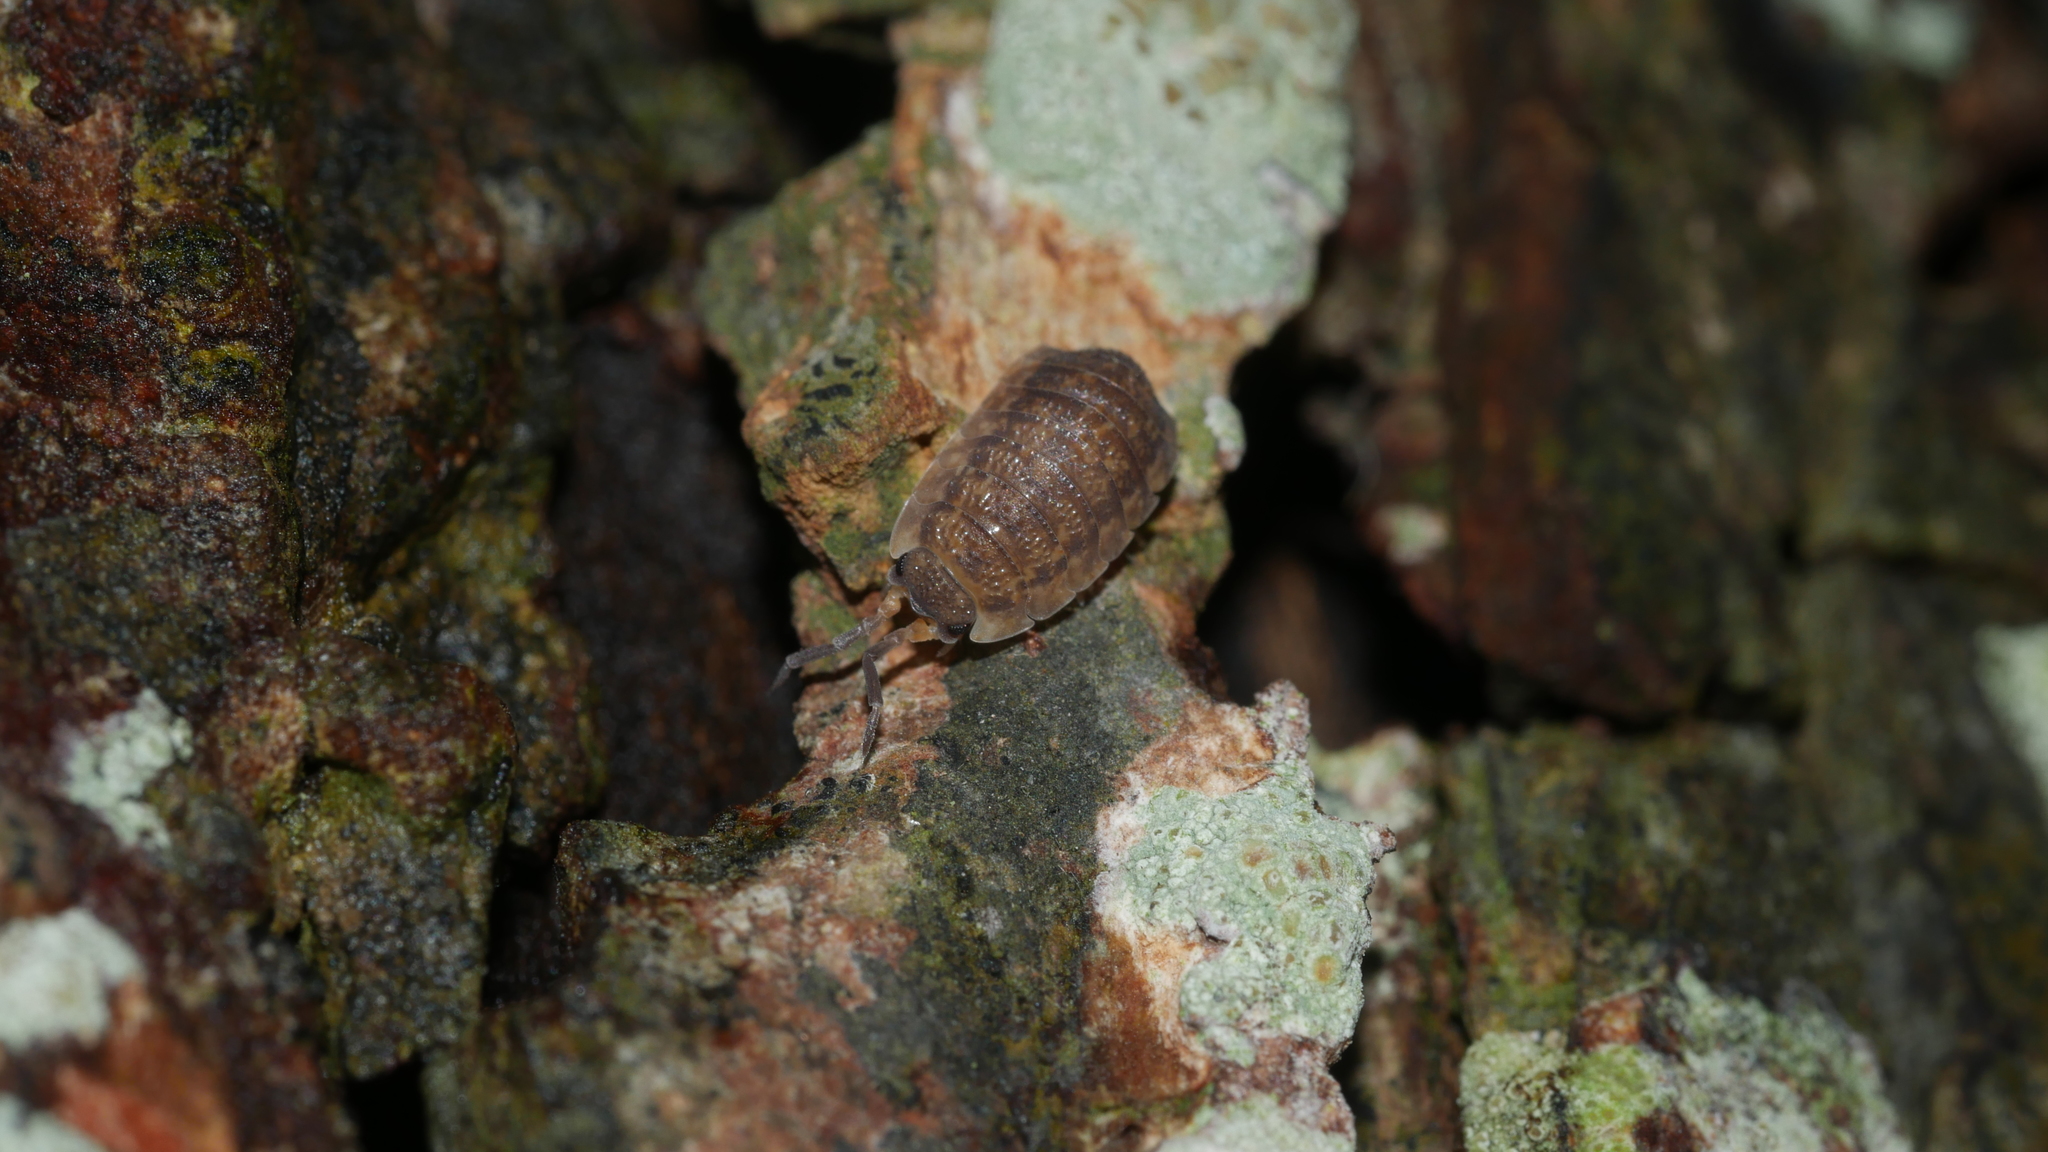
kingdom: Animalia
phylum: Arthropoda
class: Malacostraca
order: Isopoda
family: Porcellionidae
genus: Porcellio
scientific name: Porcellio scaber
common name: Common rough woodlouse
